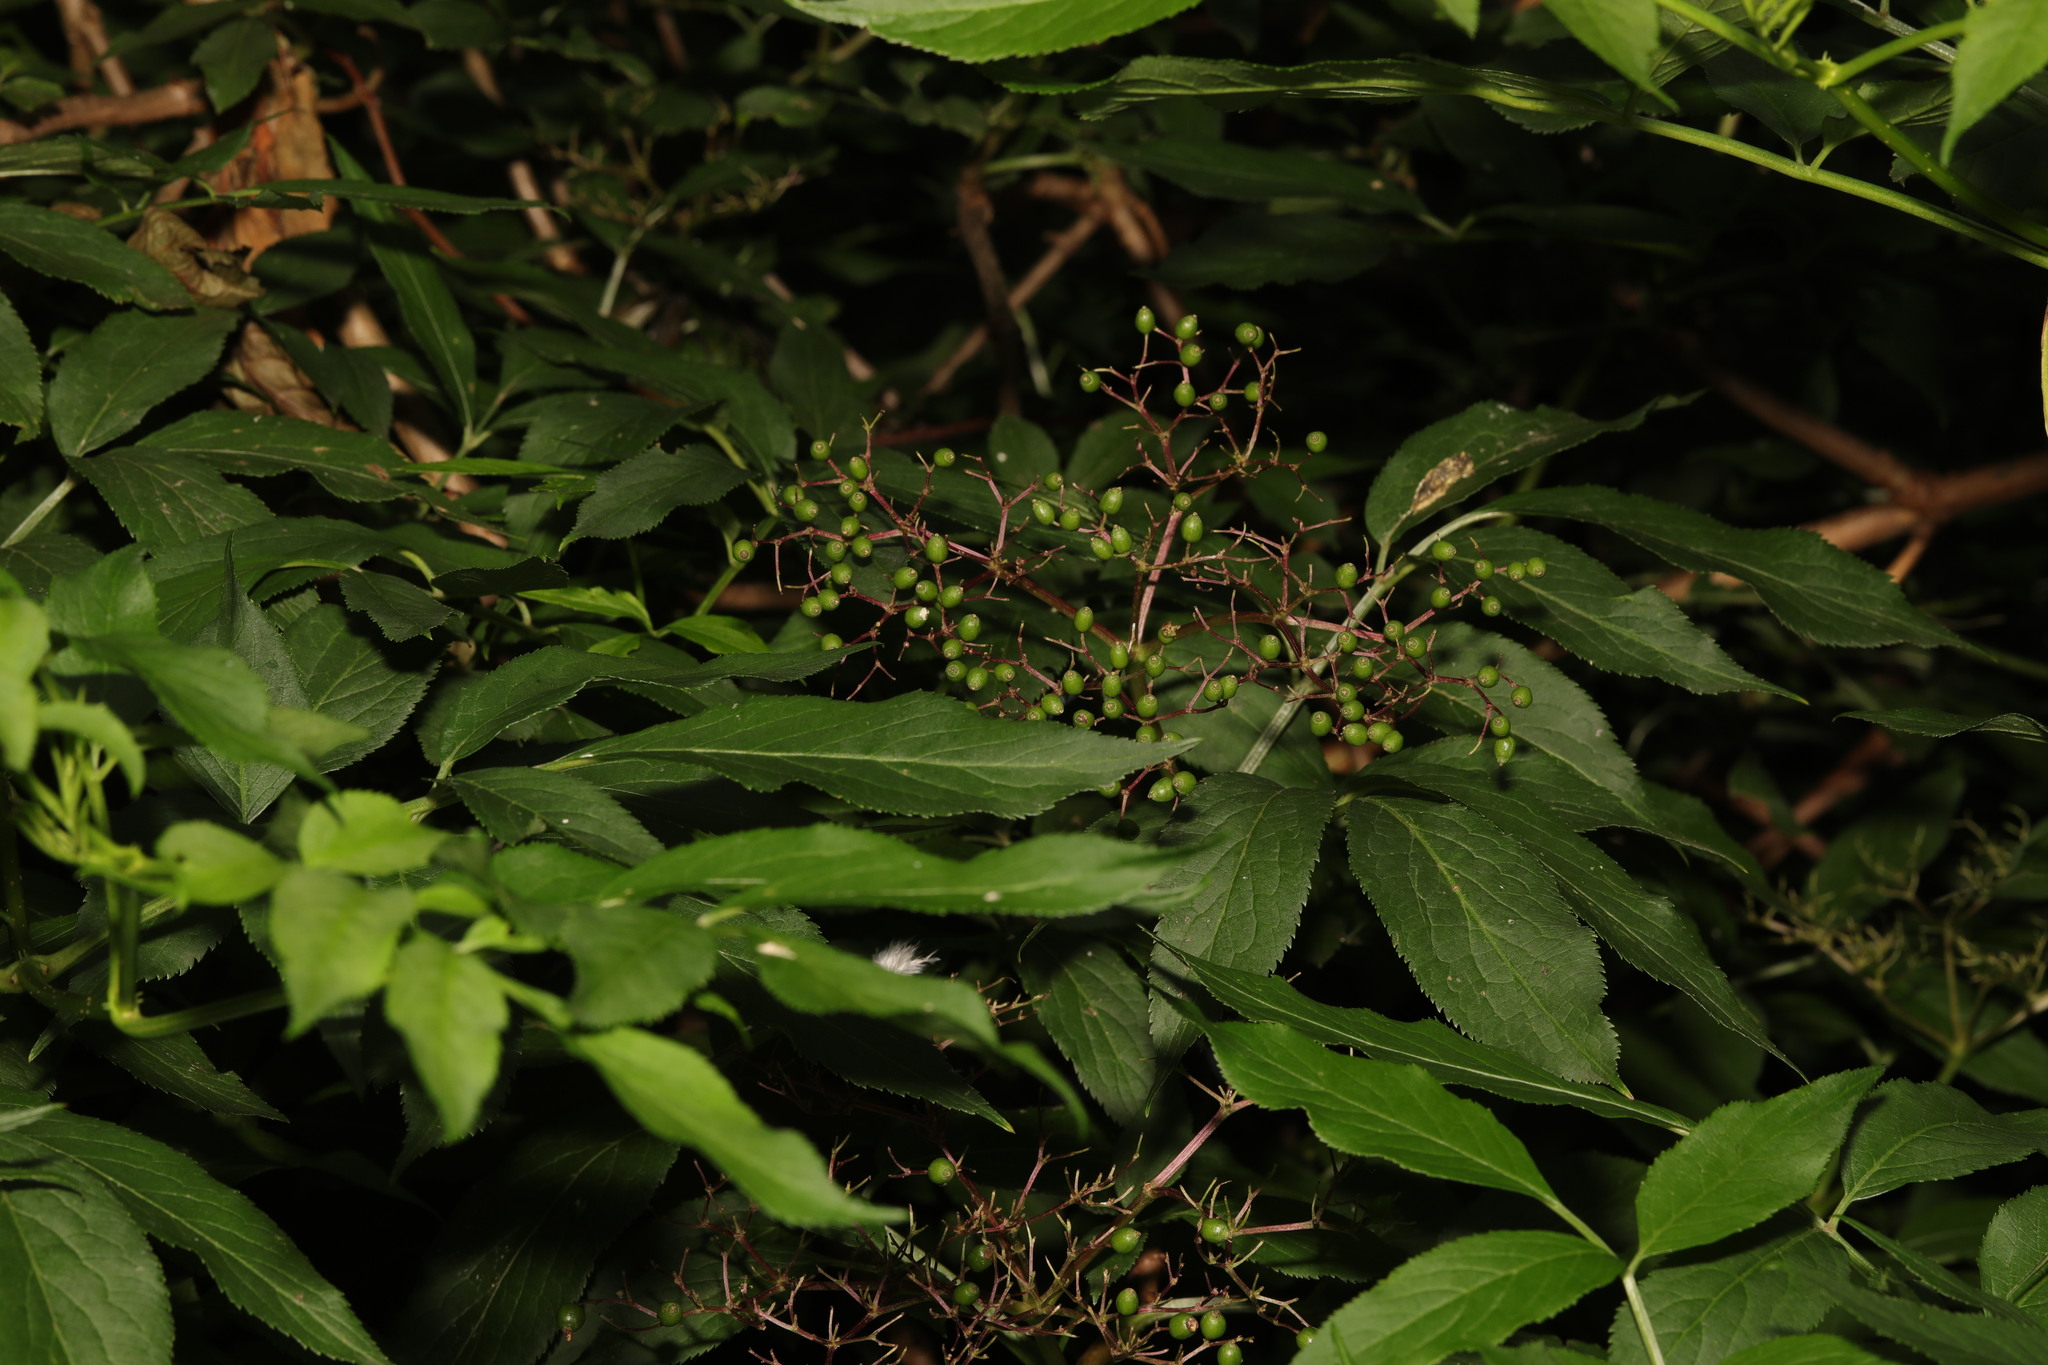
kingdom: Plantae
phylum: Tracheophyta
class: Magnoliopsida
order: Dipsacales
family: Viburnaceae
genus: Sambucus
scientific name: Sambucus nigra
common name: Elder
